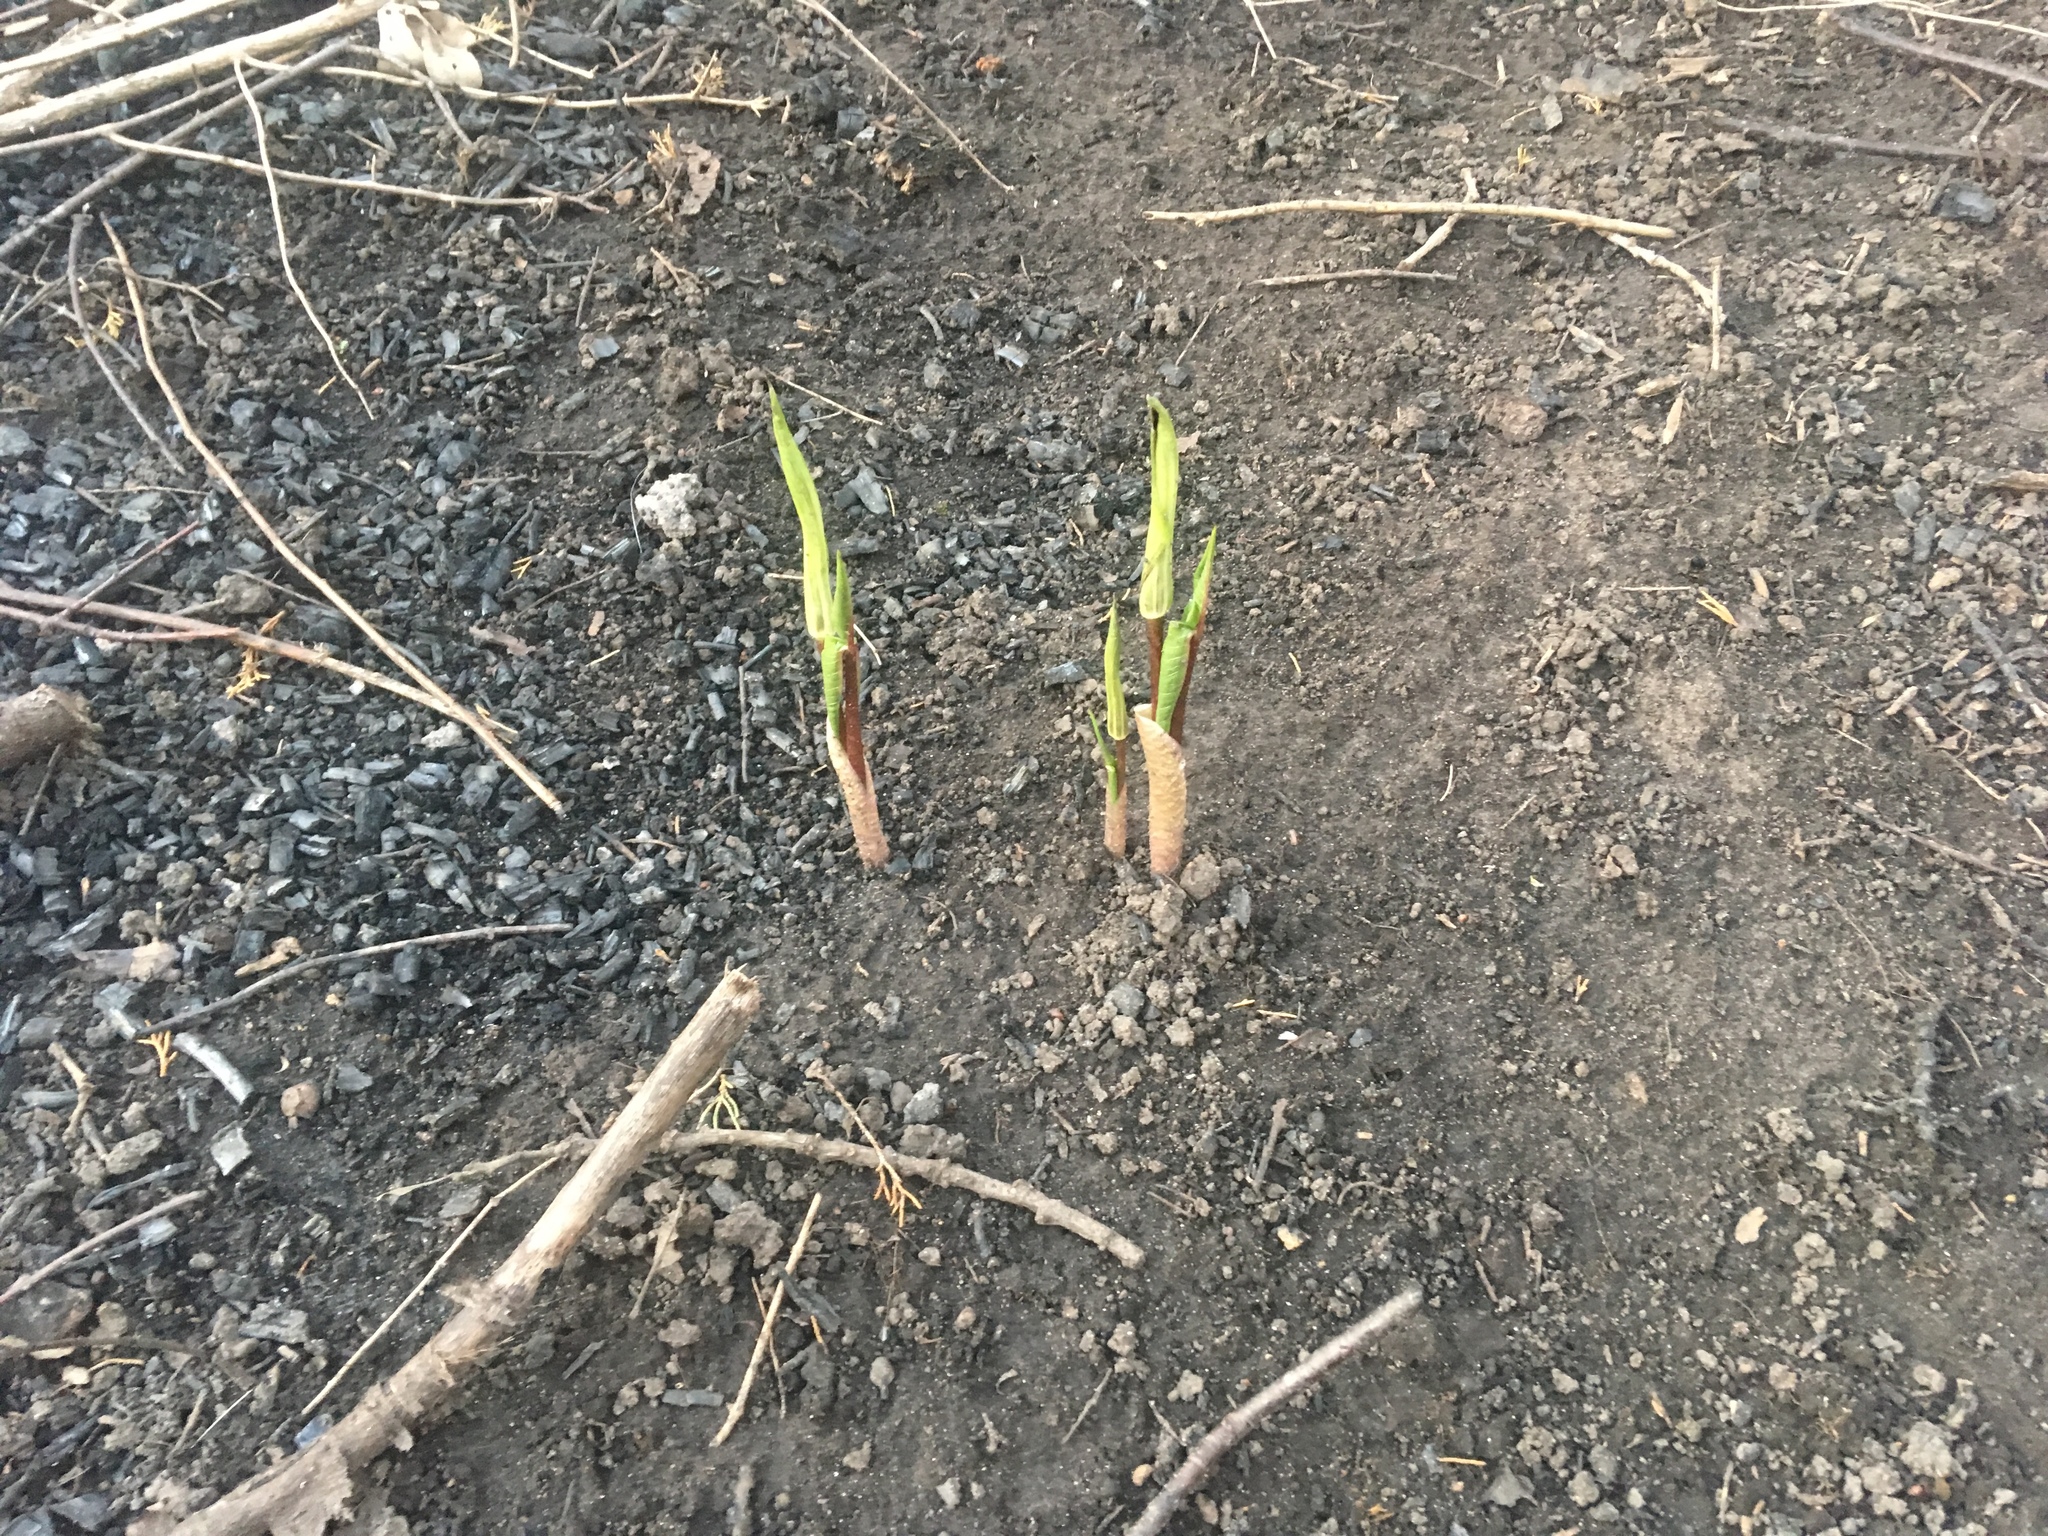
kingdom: Plantae
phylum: Tracheophyta
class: Liliopsida
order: Alismatales
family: Araceae
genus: Arisaema
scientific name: Arisaema triphyllum
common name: Jack-in-the-pulpit
